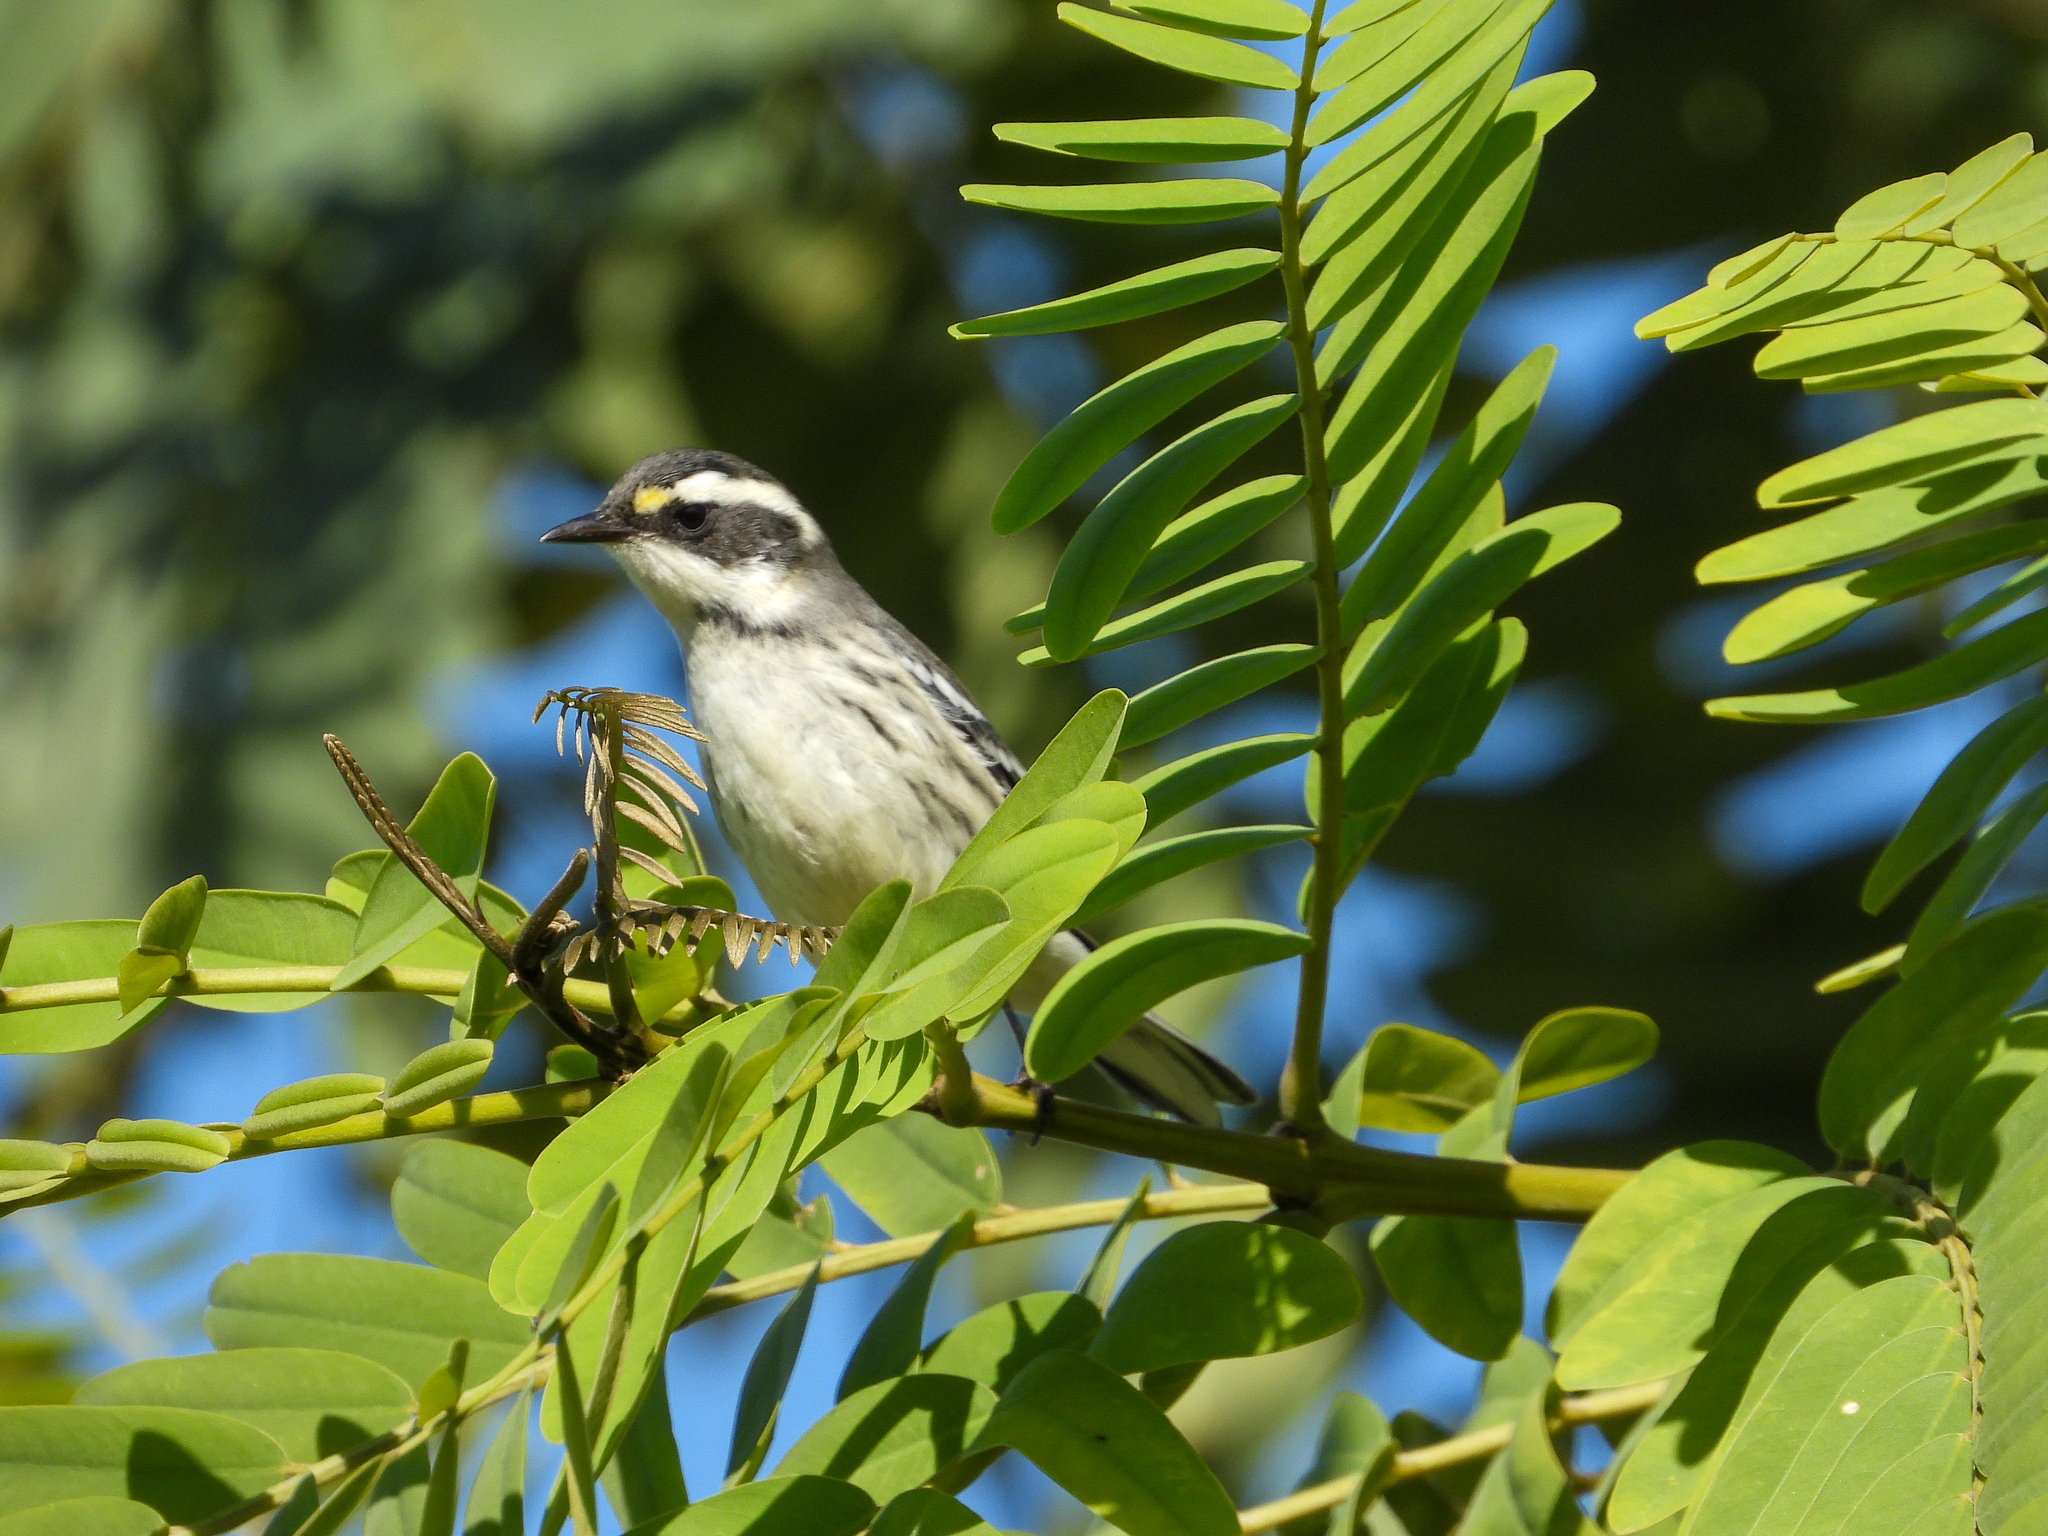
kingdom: Animalia
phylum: Chordata
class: Aves
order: Passeriformes
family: Parulidae
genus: Setophaga
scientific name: Setophaga nigrescens
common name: Black-throated gray warbler
